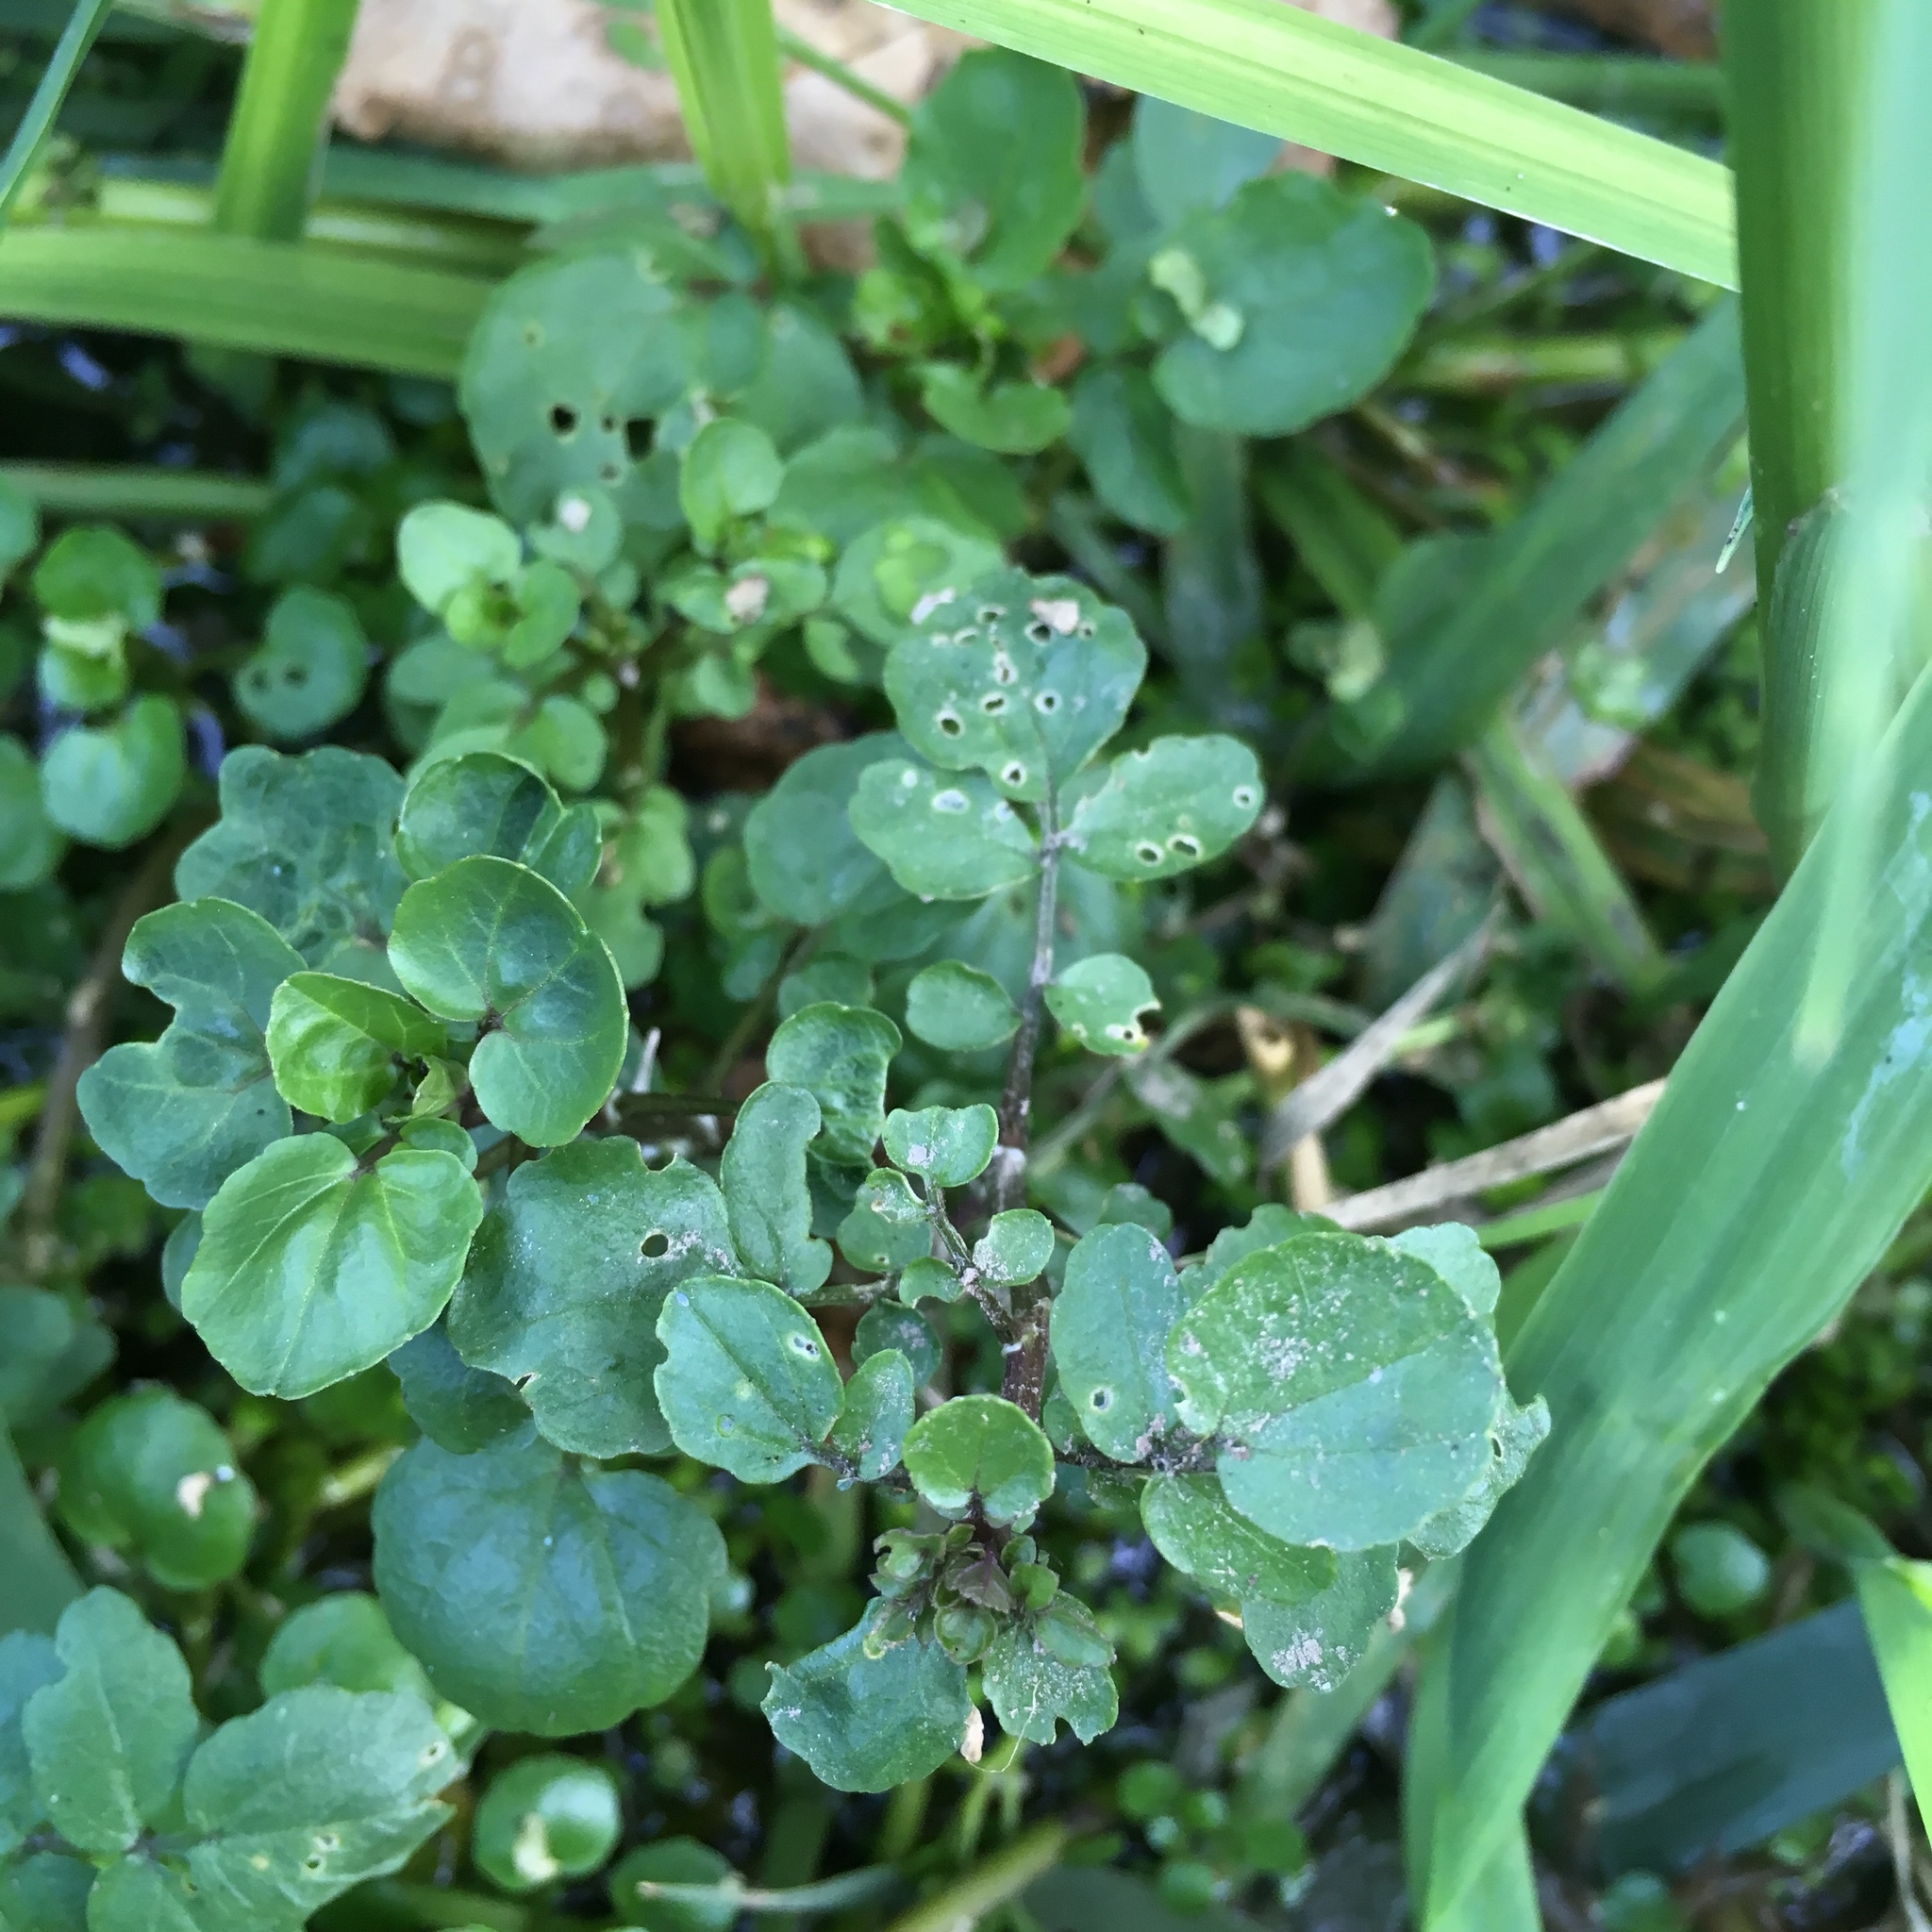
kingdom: Plantae
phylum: Tracheophyta
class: Magnoliopsida
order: Brassicales
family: Brassicaceae
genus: Nasturtium
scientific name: Nasturtium officinale
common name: Watercress
